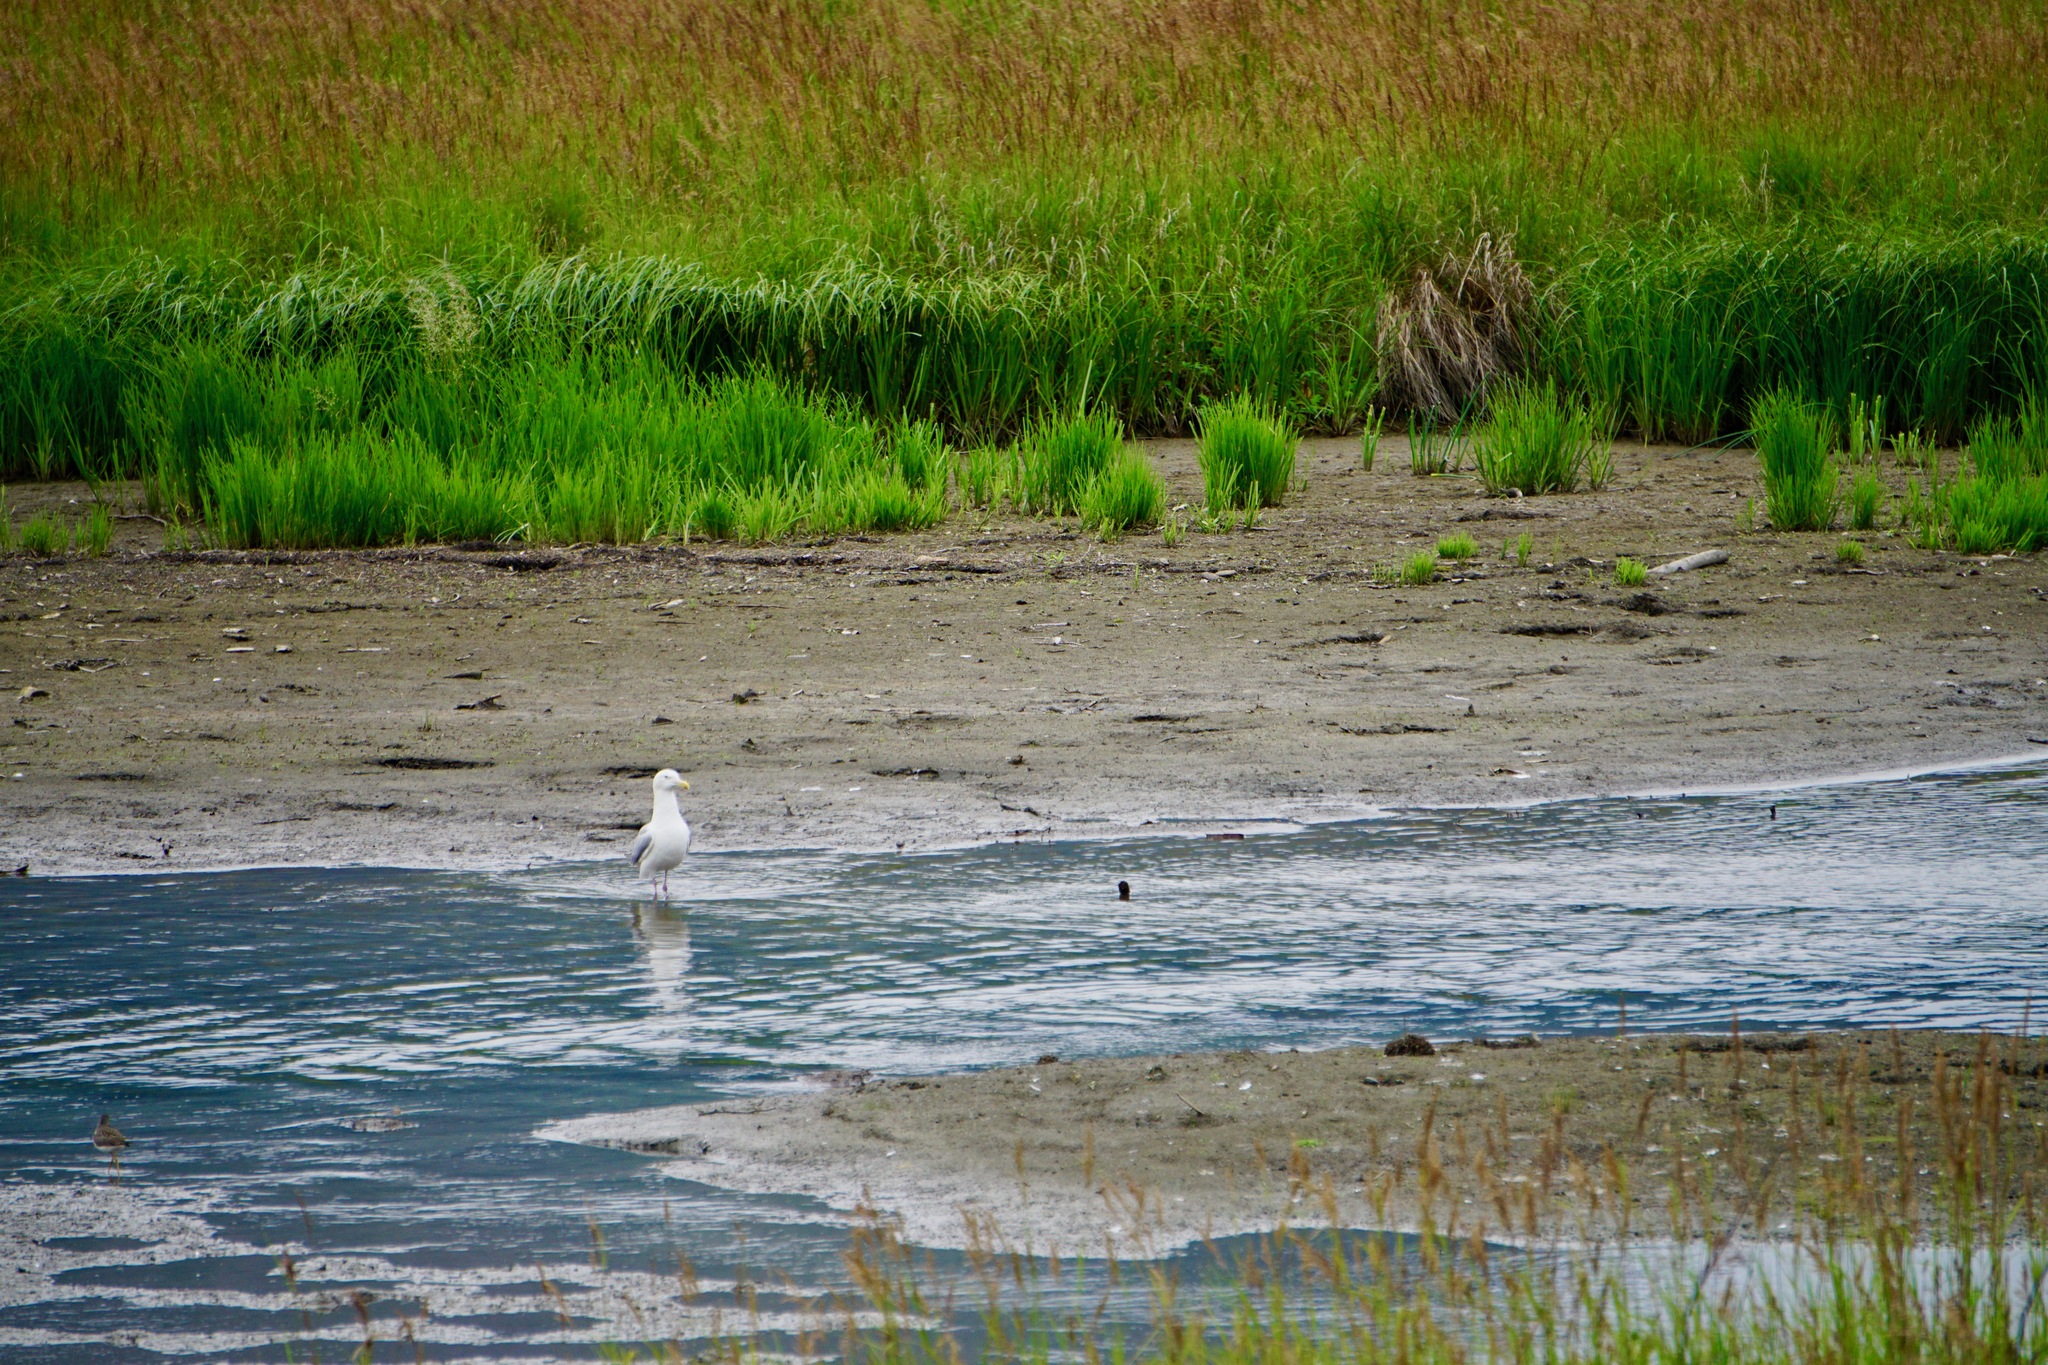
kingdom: Animalia
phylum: Chordata
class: Aves
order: Charadriiformes
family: Laridae
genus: Larus
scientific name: Larus argentatus
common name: Herring gull
